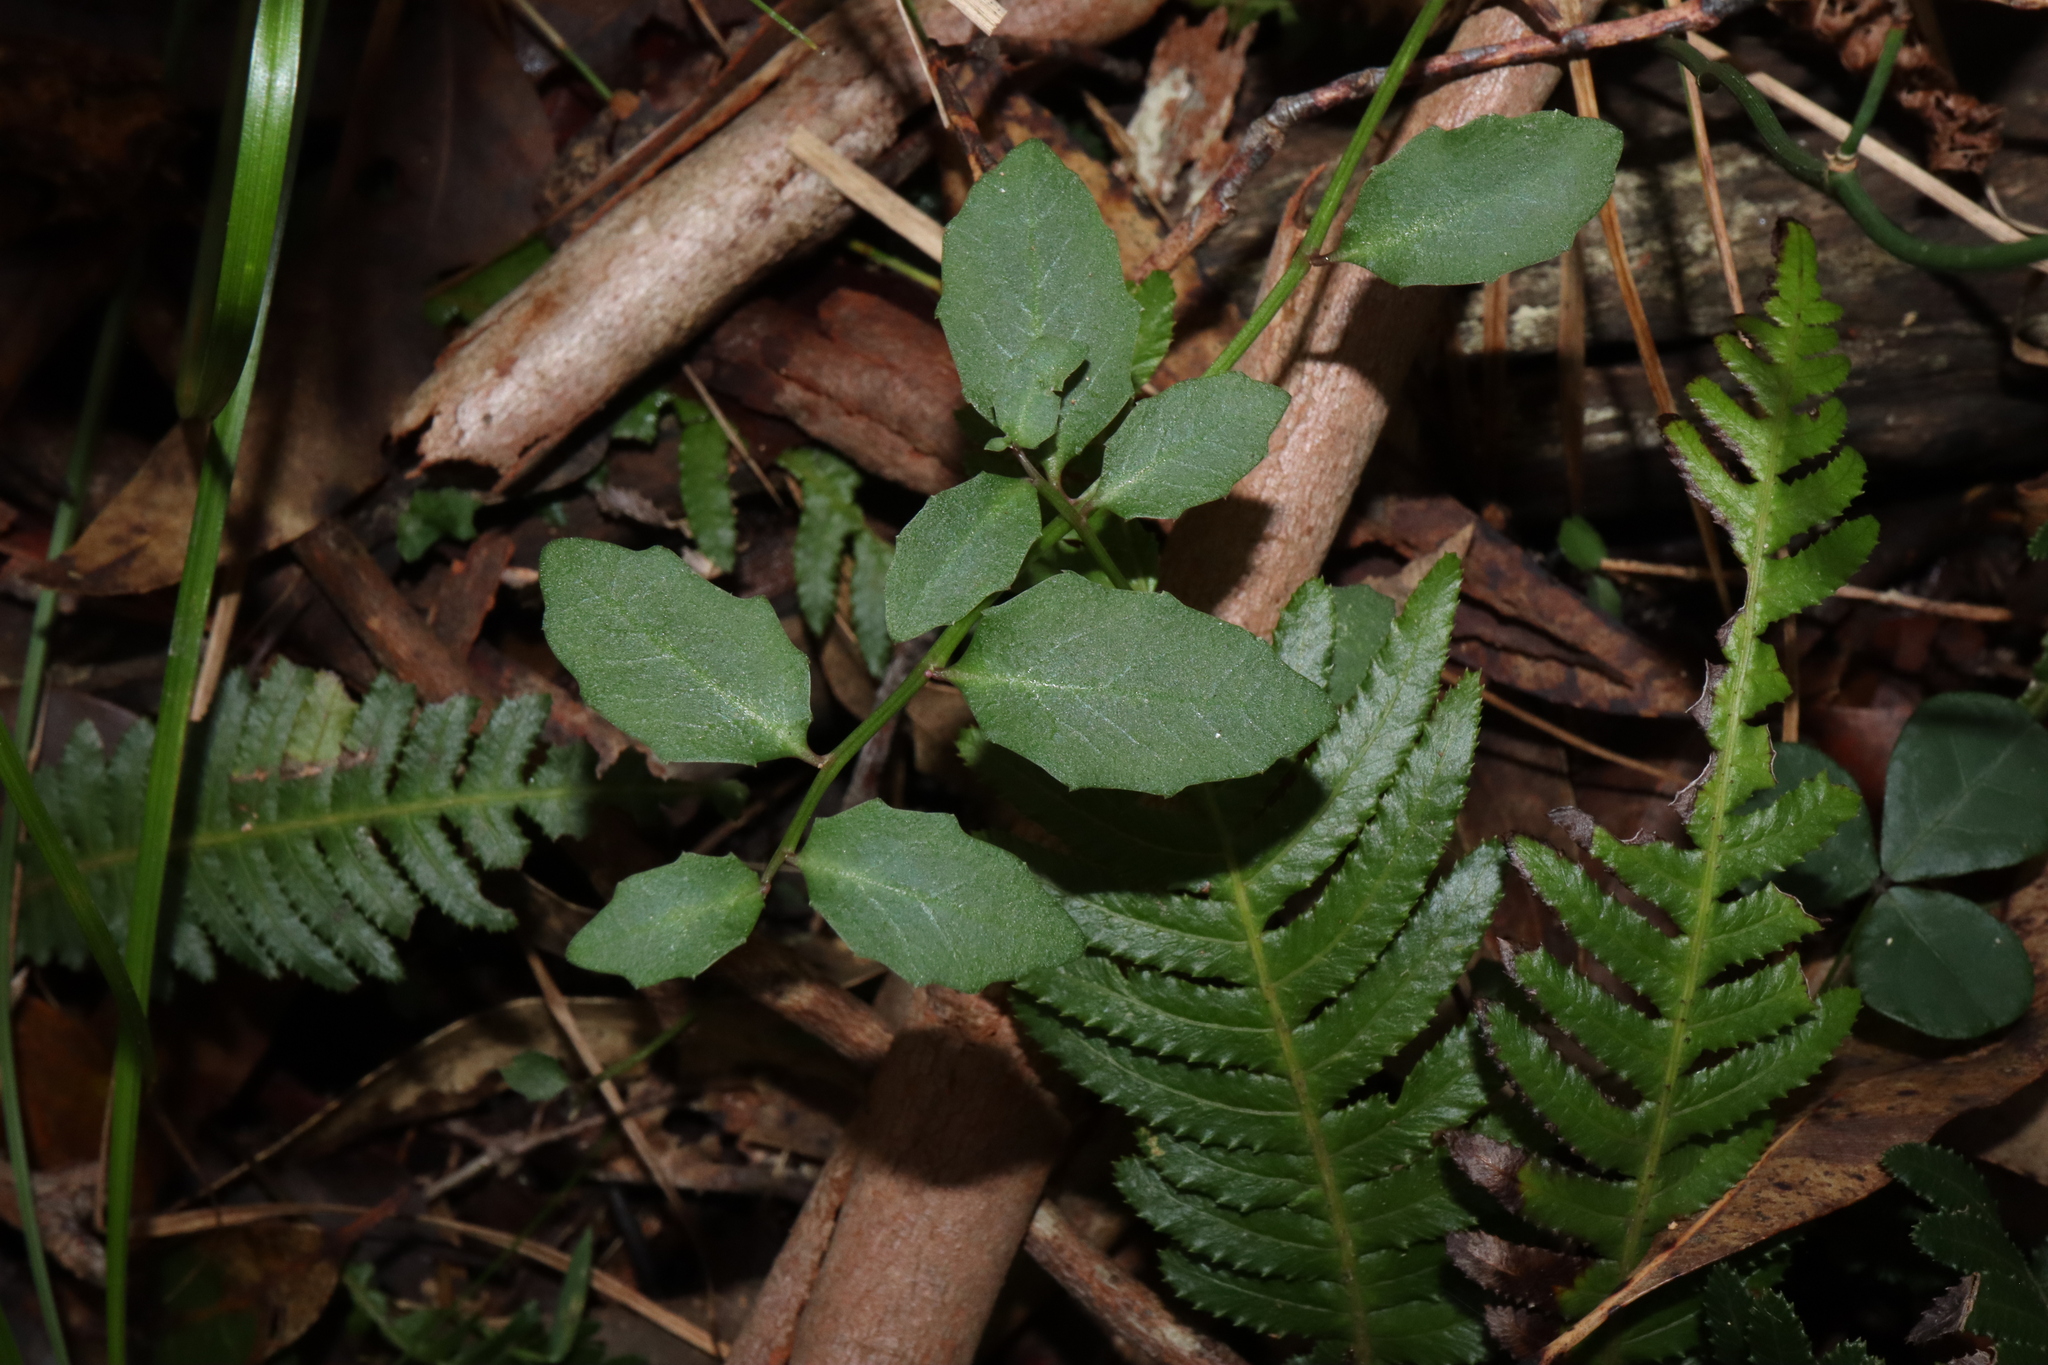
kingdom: Plantae
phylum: Tracheophyta
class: Magnoliopsida
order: Asterales
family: Campanulaceae
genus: Lobelia
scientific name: Lobelia purpurascens
